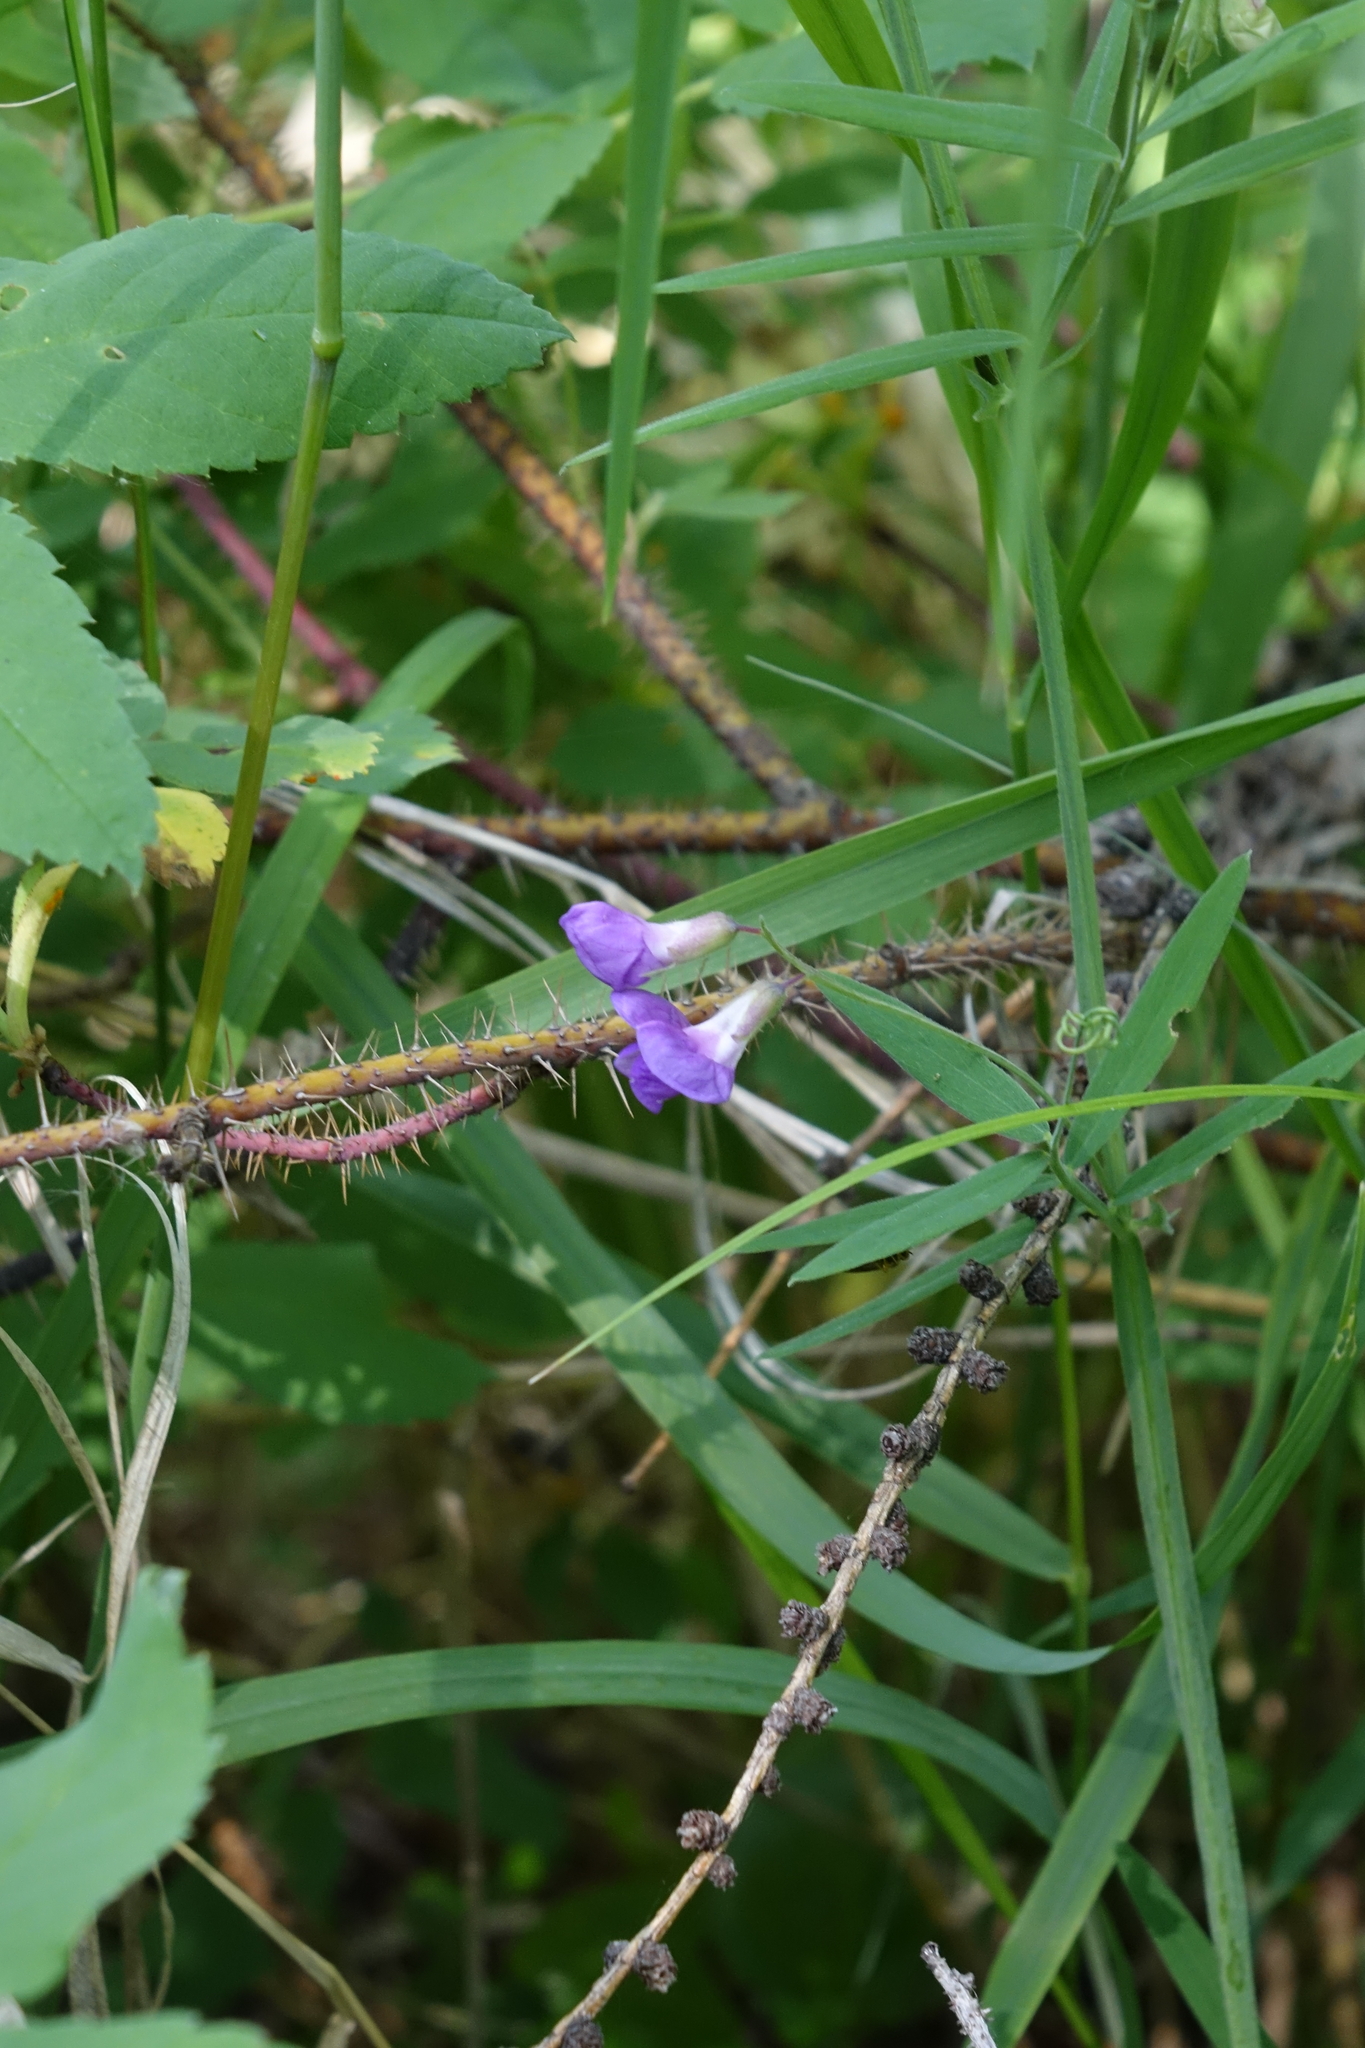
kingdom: Plantae
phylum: Tracheophyta
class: Magnoliopsida
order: Fabales
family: Fabaceae
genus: Lathyrus
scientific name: Lathyrus palustris
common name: Marsh pea
